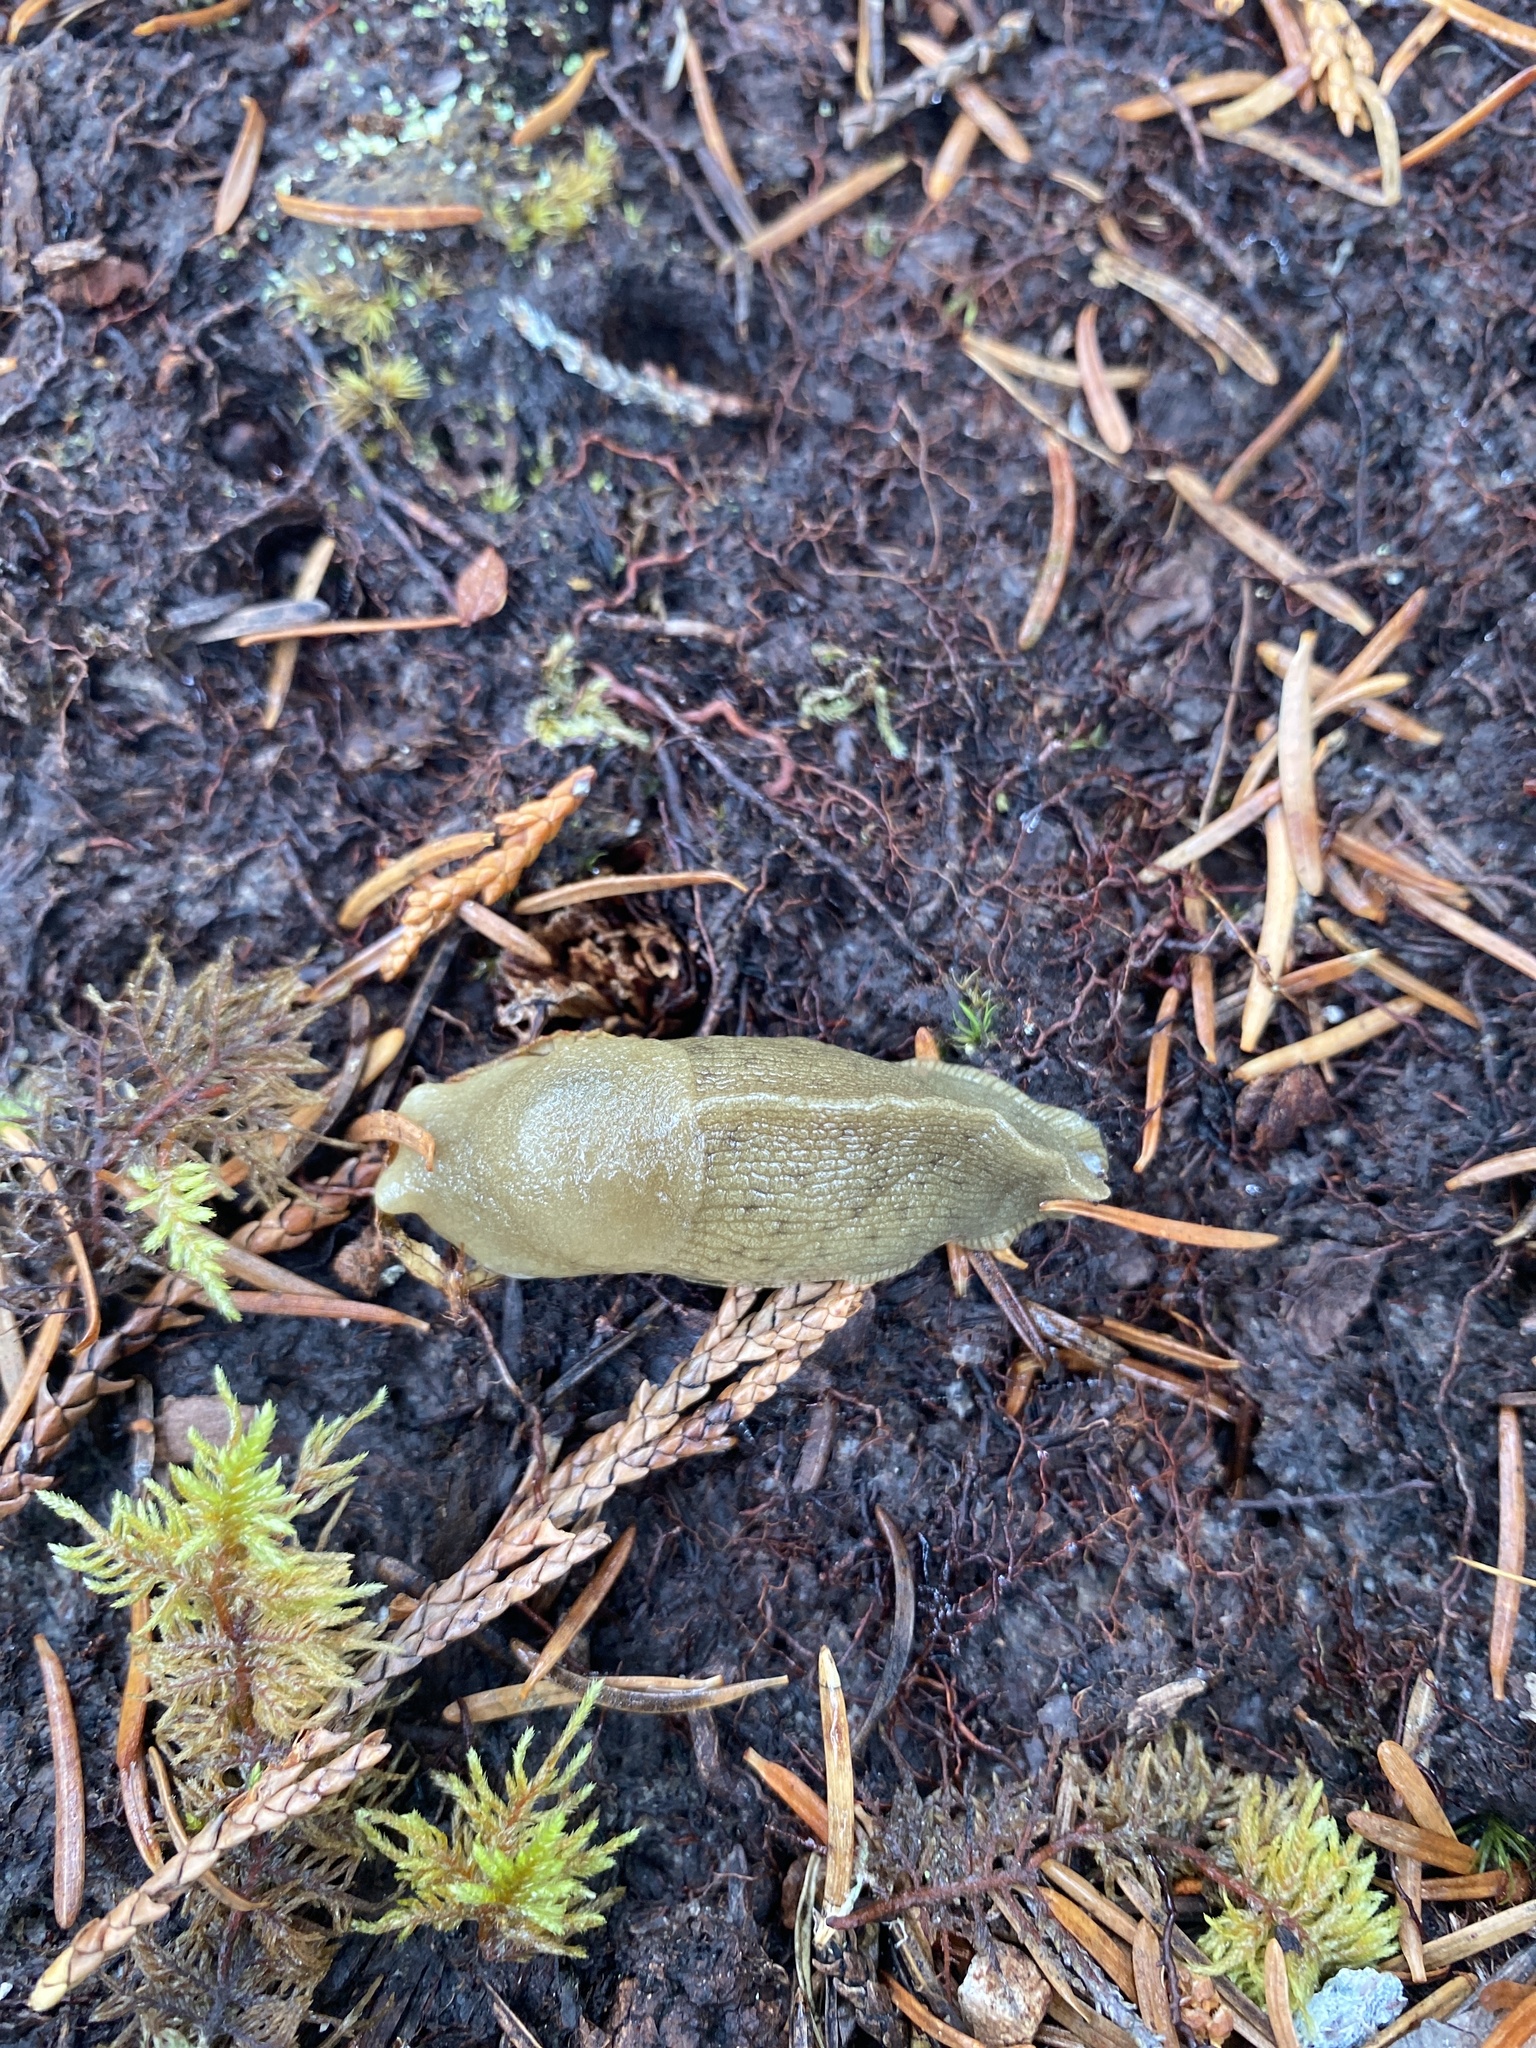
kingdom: Animalia
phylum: Mollusca
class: Gastropoda
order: Stylommatophora
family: Ariolimacidae
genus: Ariolimax
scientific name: Ariolimax columbianus
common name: Pacific banana slug
